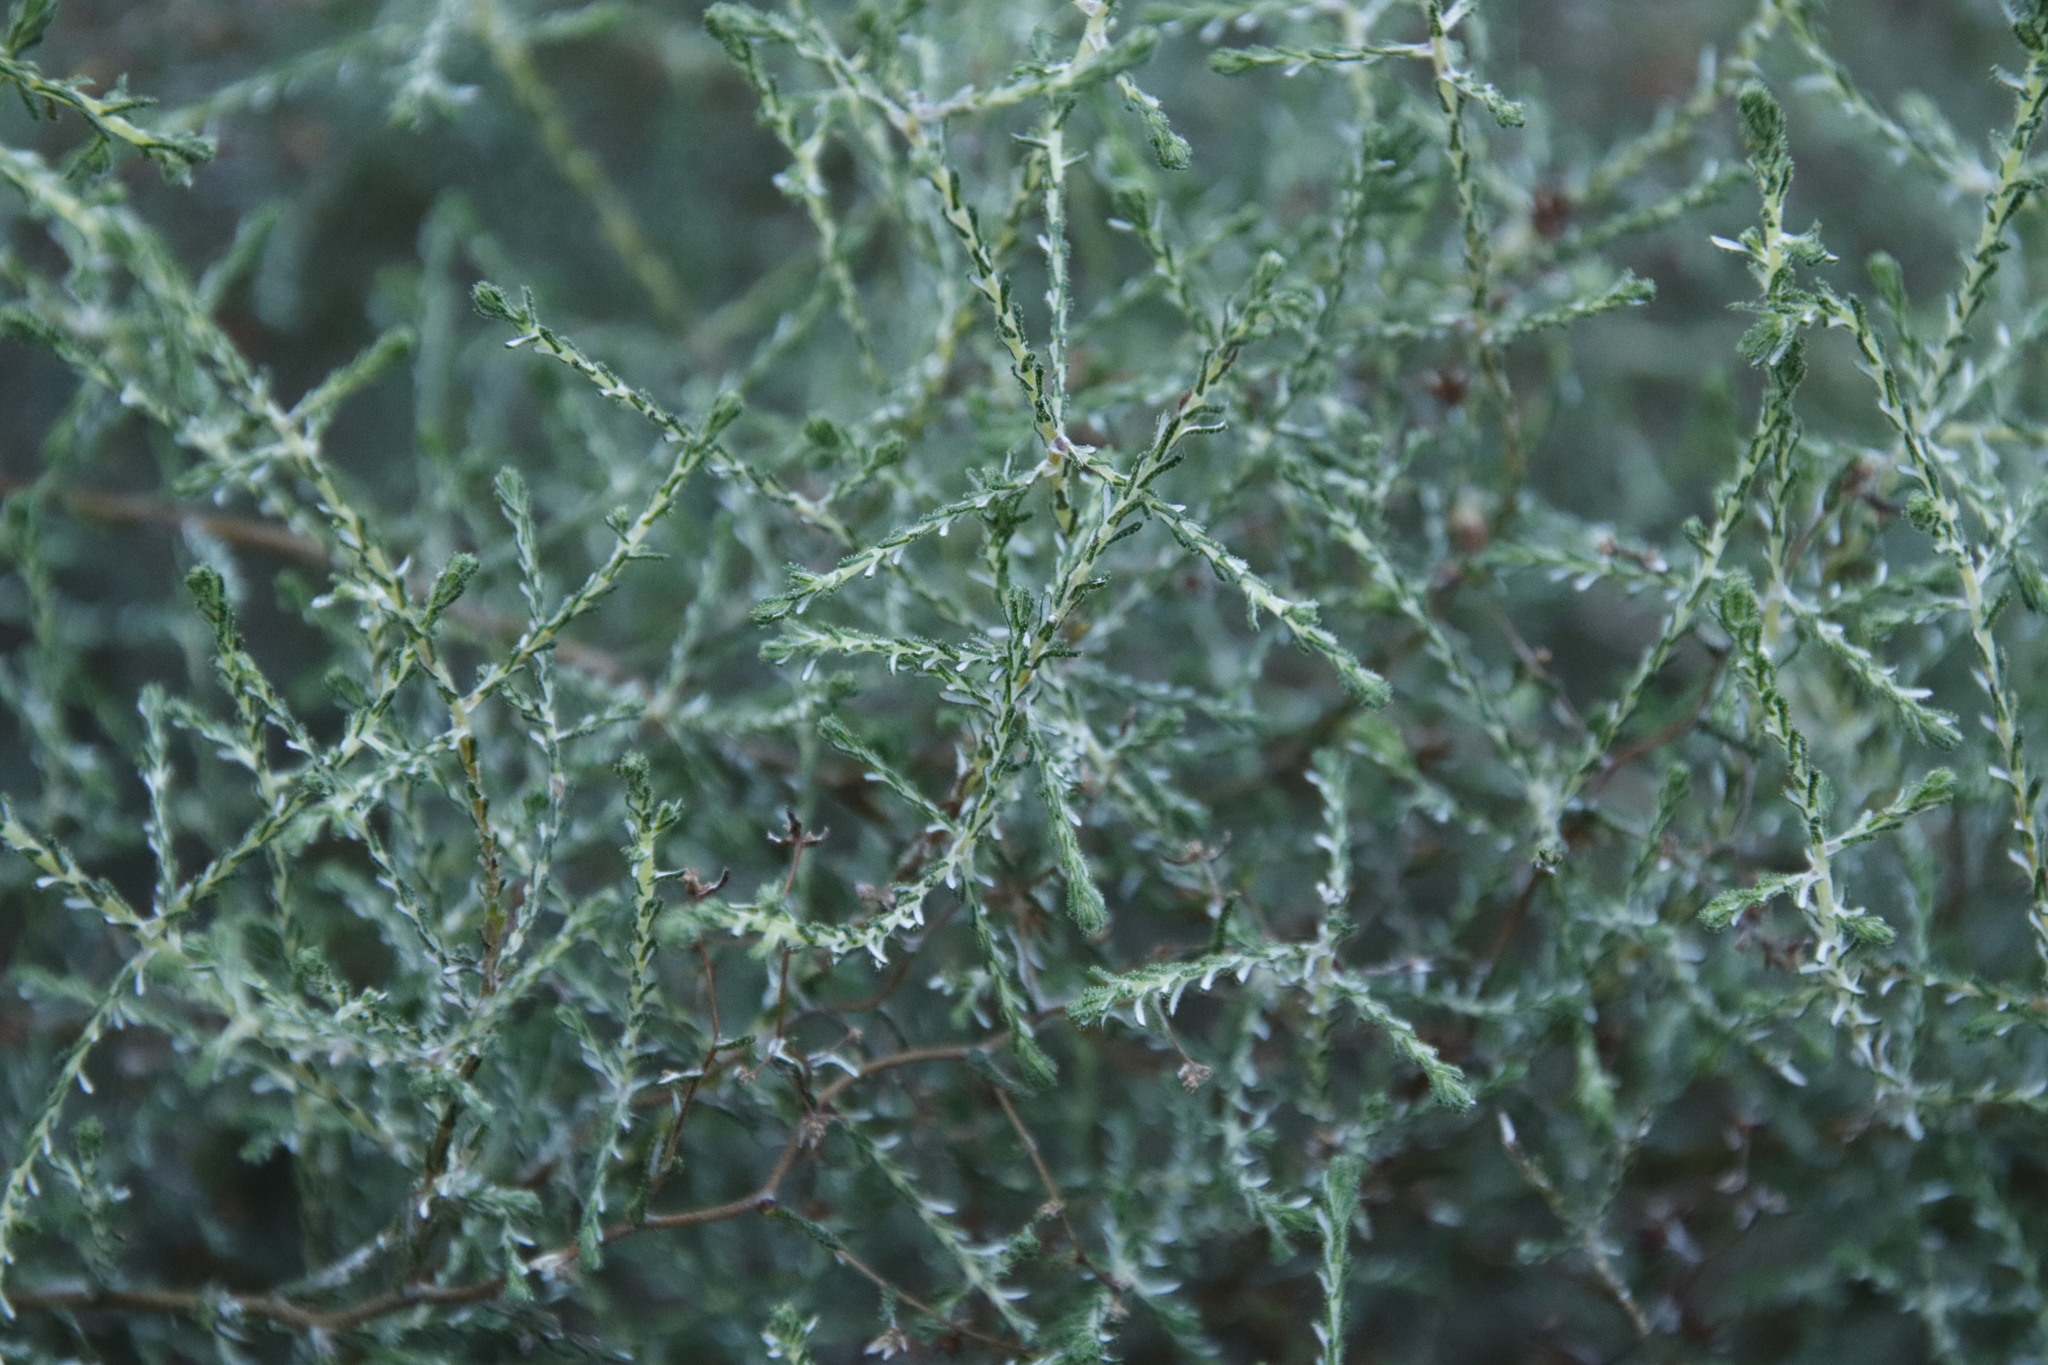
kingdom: Plantae
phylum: Tracheophyta
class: Magnoliopsida
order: Asterales
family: Asteraceae
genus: Myrovernix
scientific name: Myrovernix scaber
